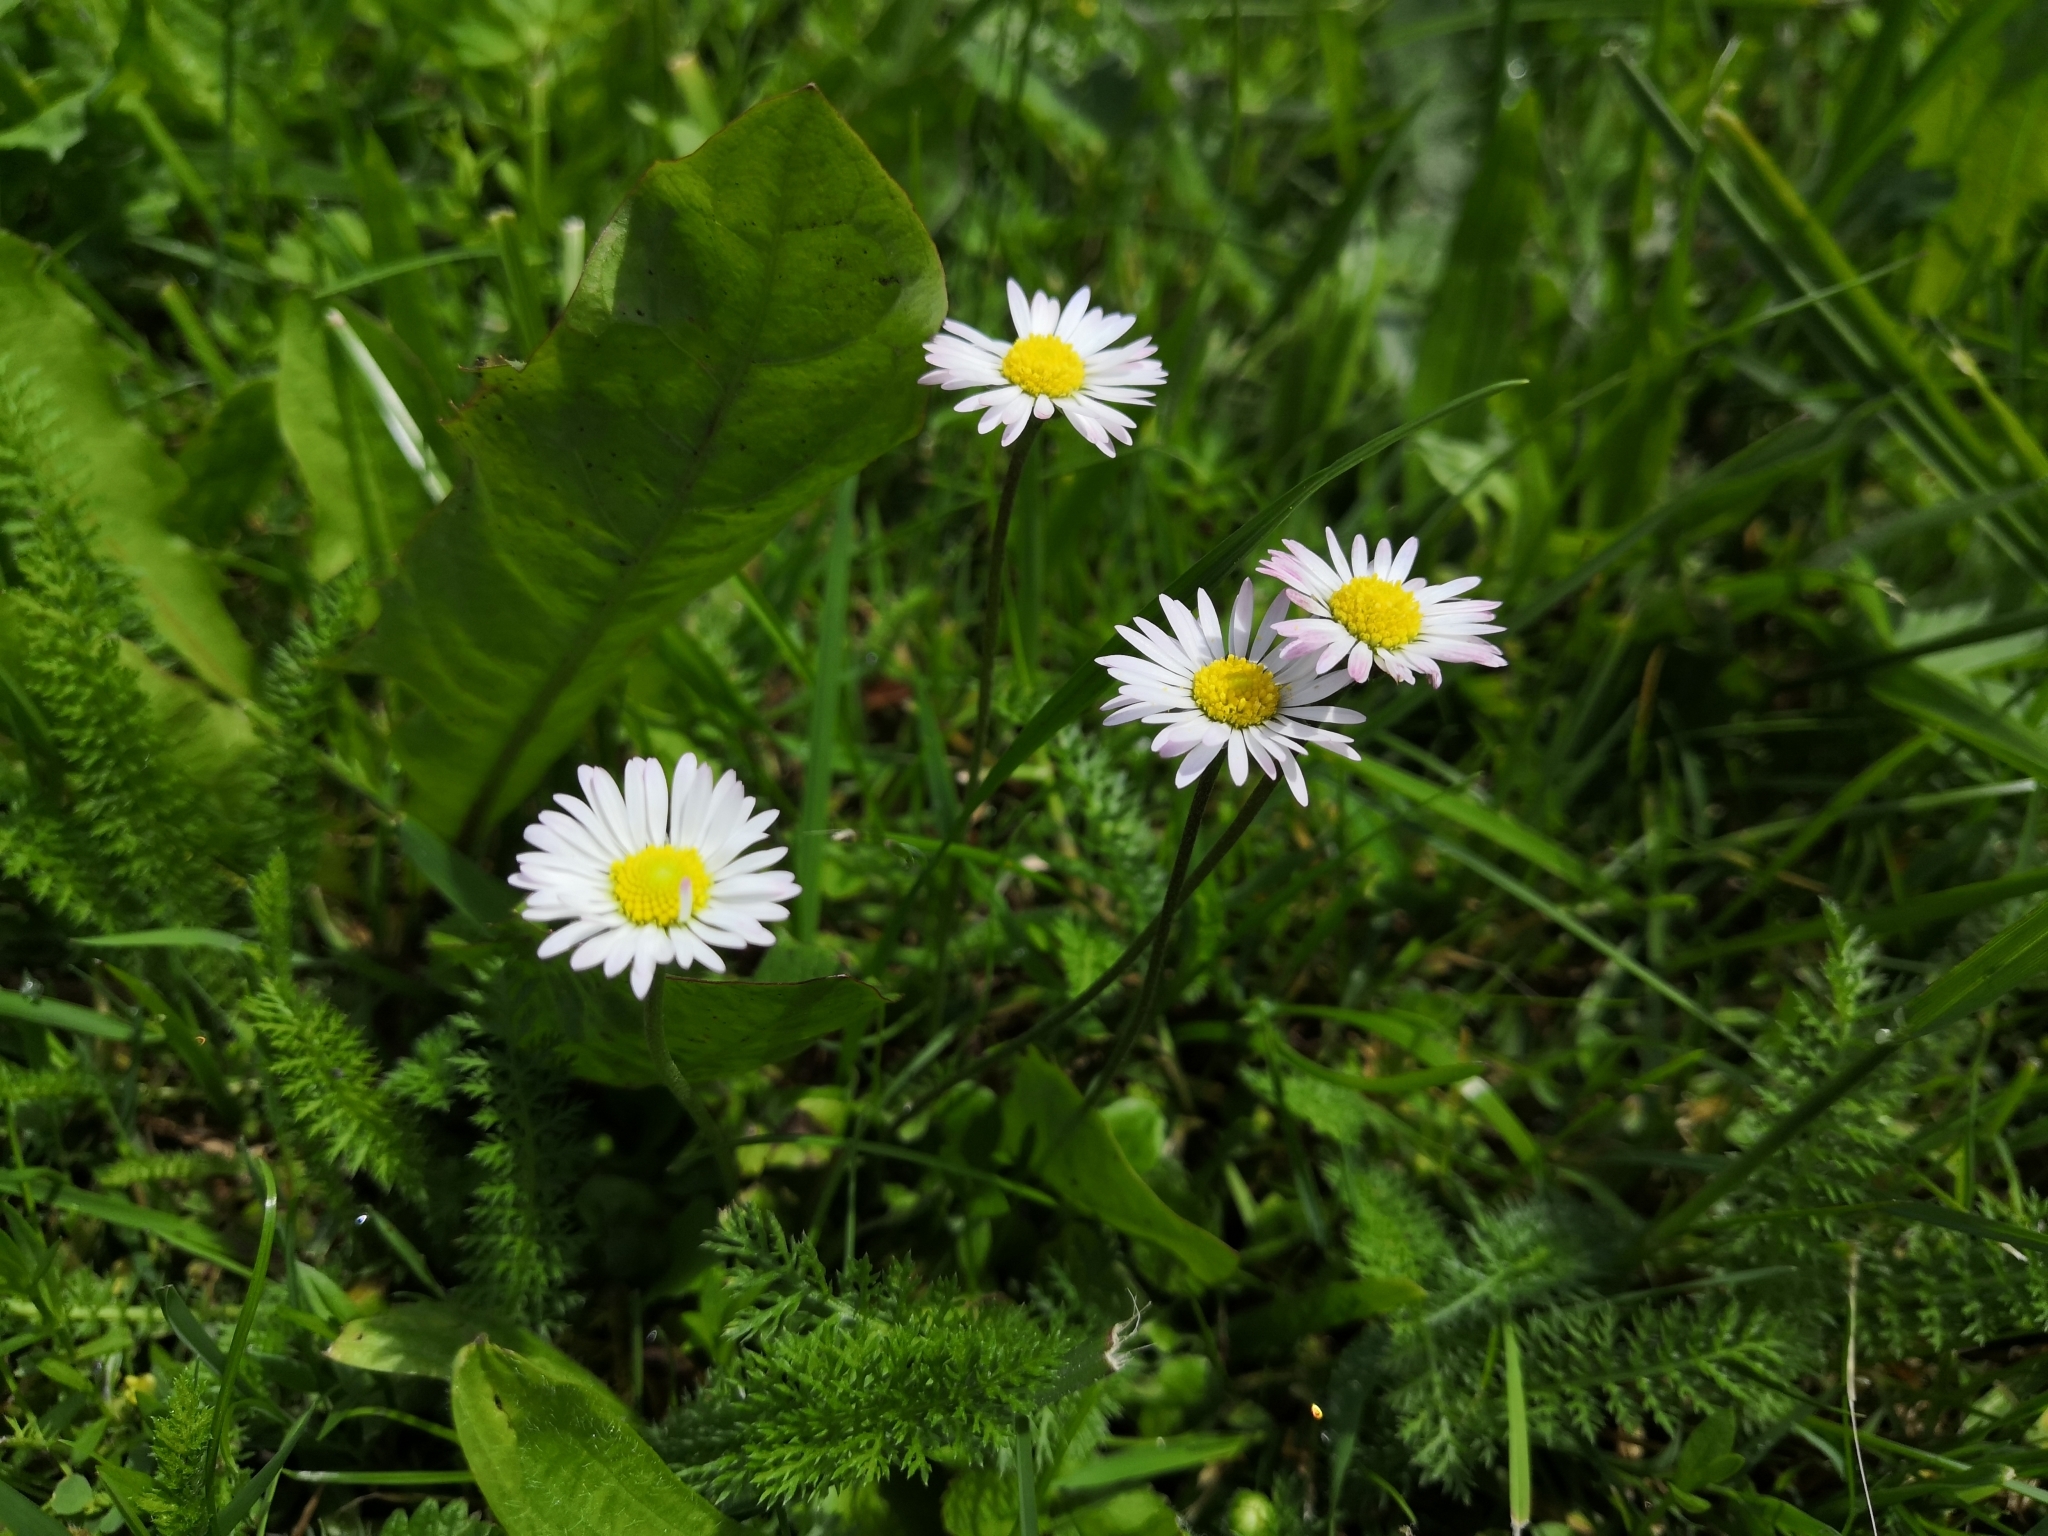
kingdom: Plantae
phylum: Tracheophyta
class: Magnoliopsida
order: Asterales
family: Asteraceae
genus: Bellis
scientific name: Bellis perennis
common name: Lawndaisy
